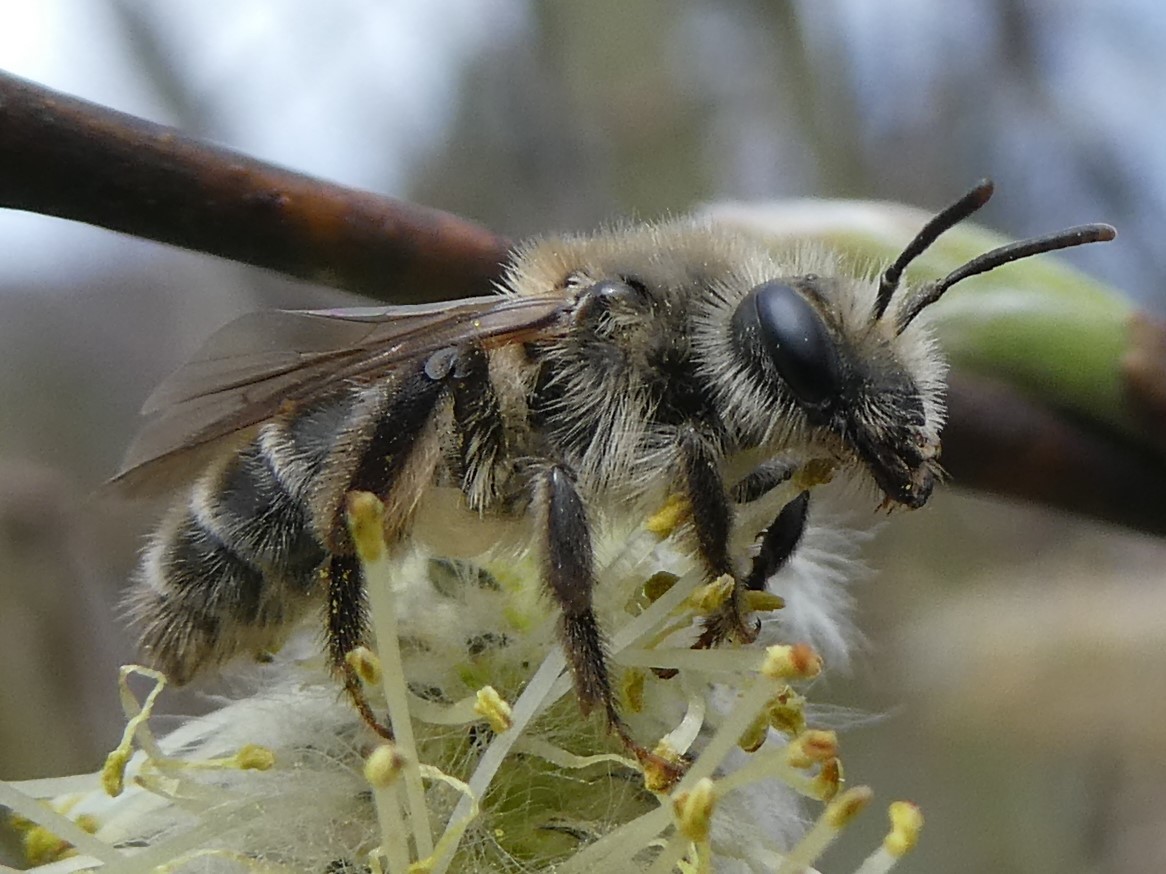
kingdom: Animalia
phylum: Arthropoda
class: Insecta
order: Hymenoptera
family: Andrenidae
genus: Andrena
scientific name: Andrena erythronii
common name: Trout-lily mining bee
